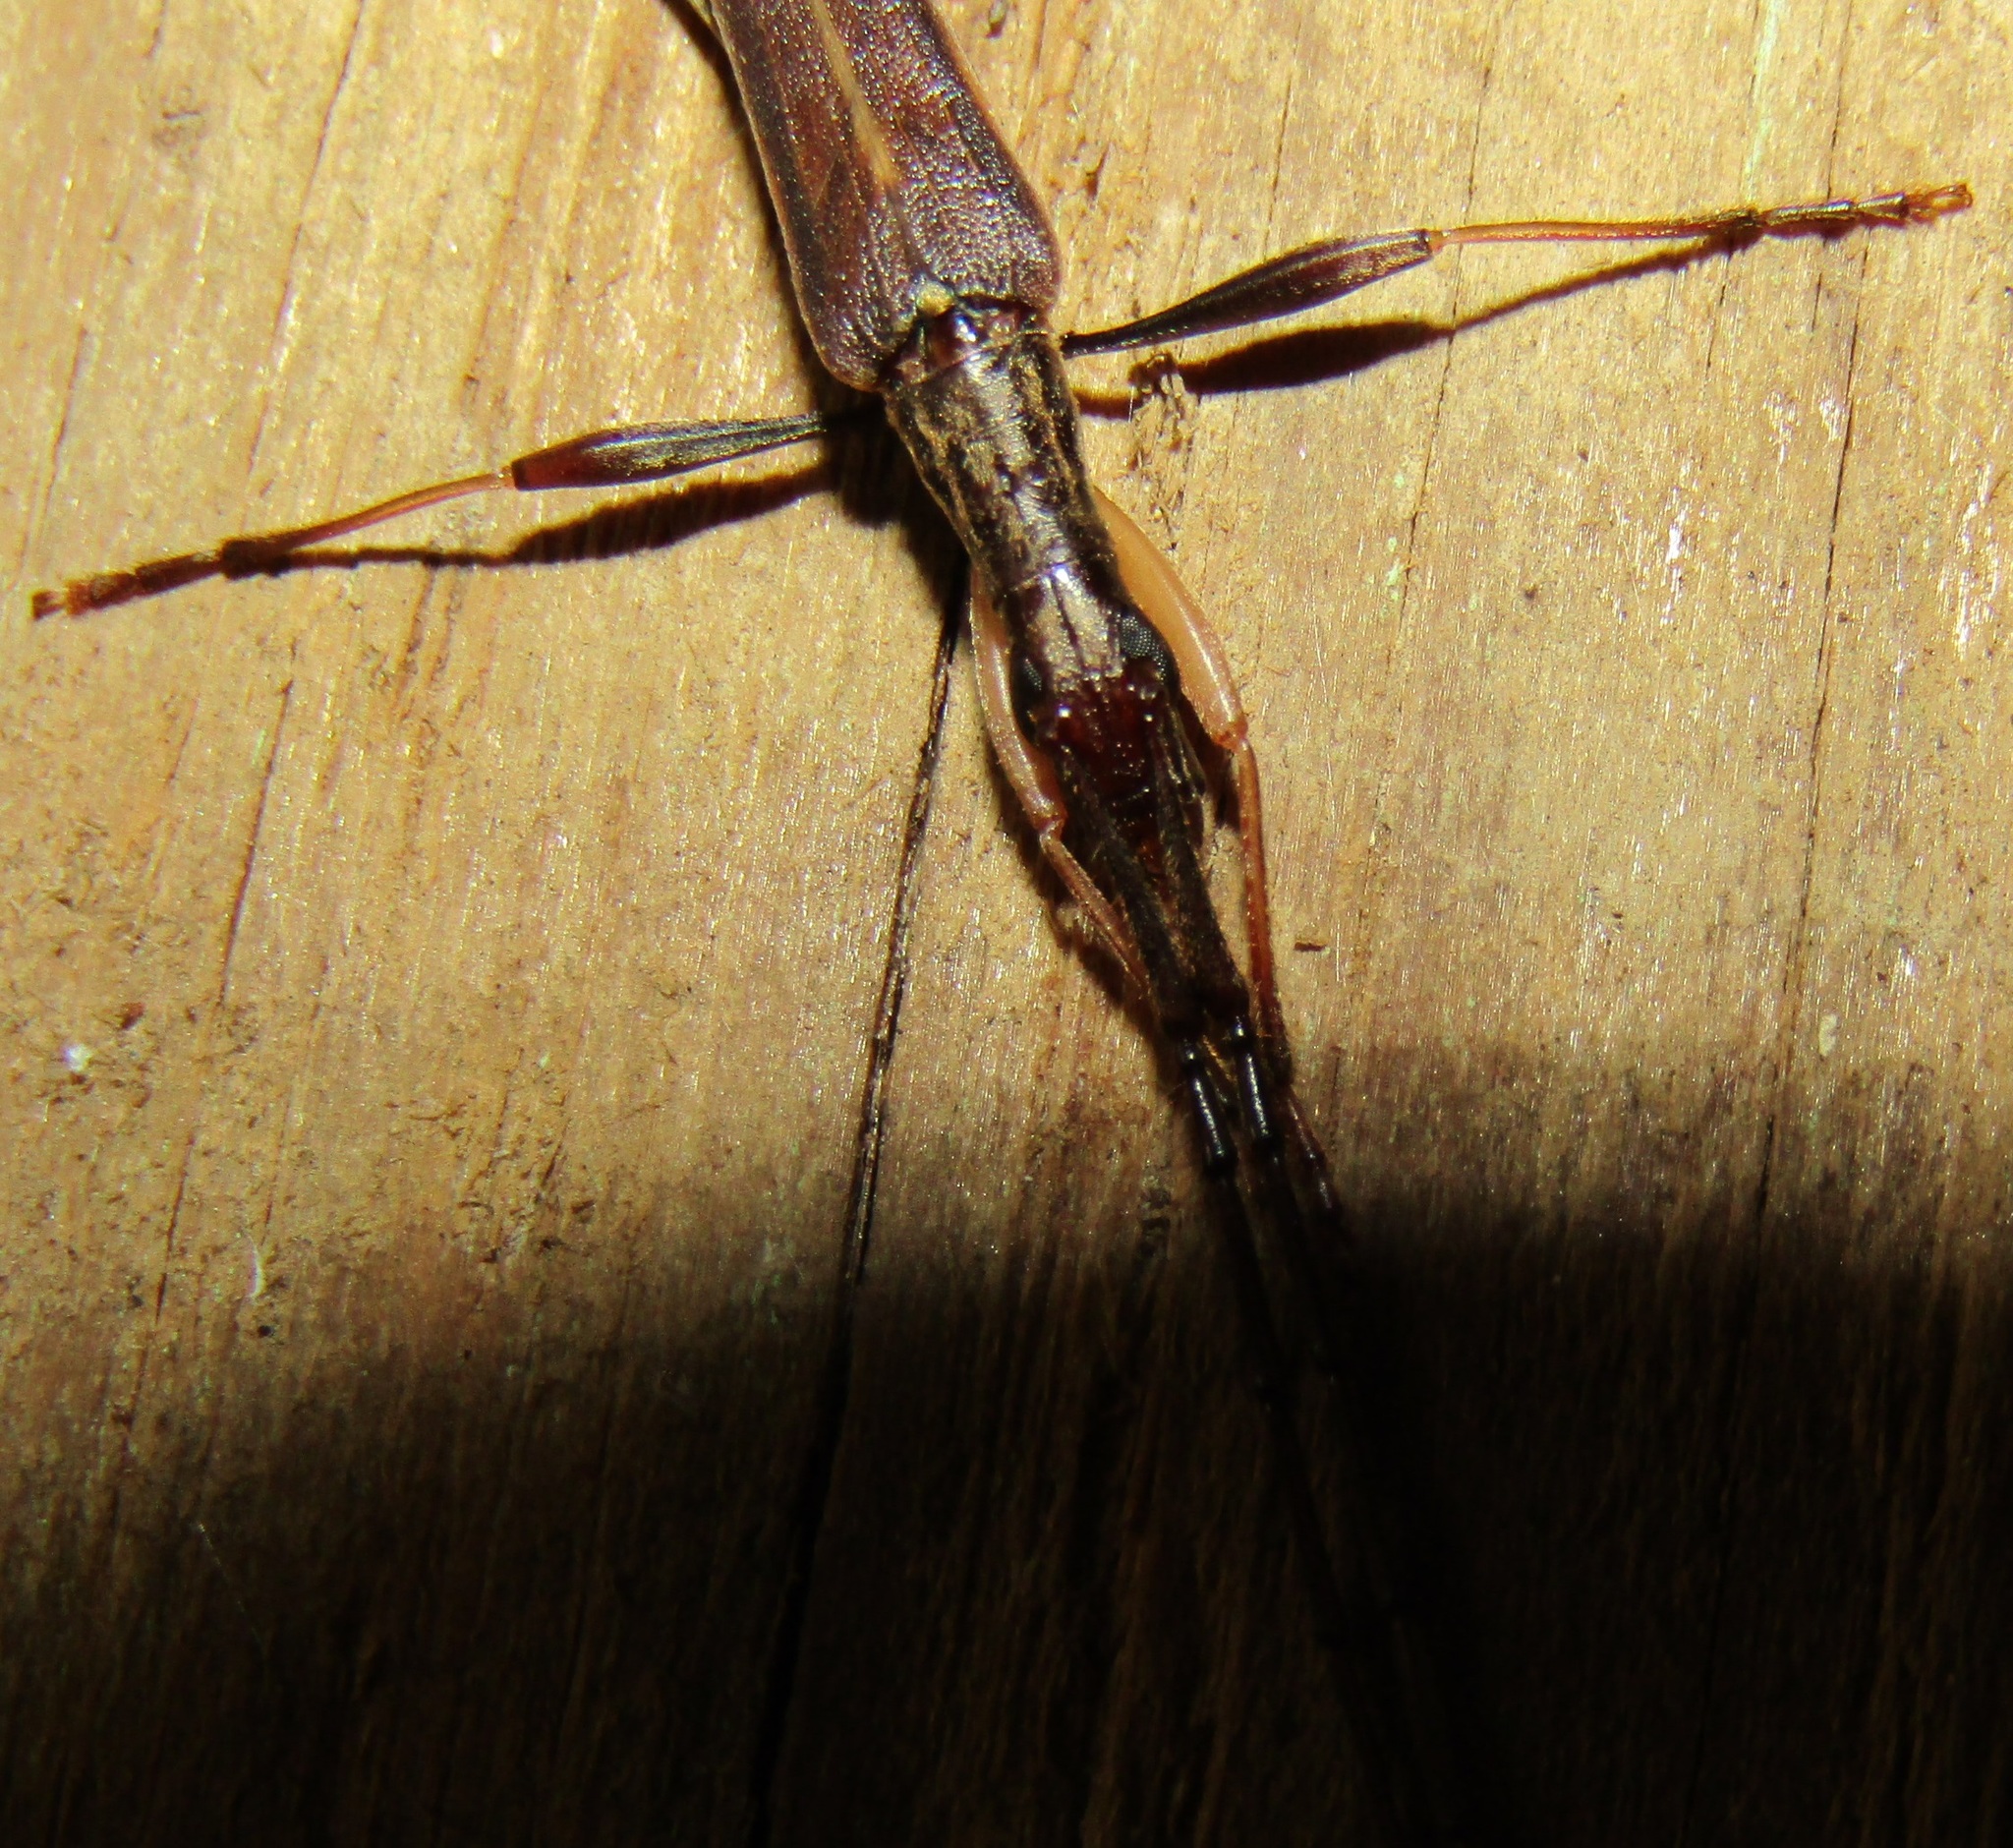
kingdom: Animalia
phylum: Arthropoda
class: Insecta
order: Coleoptera
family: Cerambycidae
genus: Stenopotes
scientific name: Stenopotes pallidus
